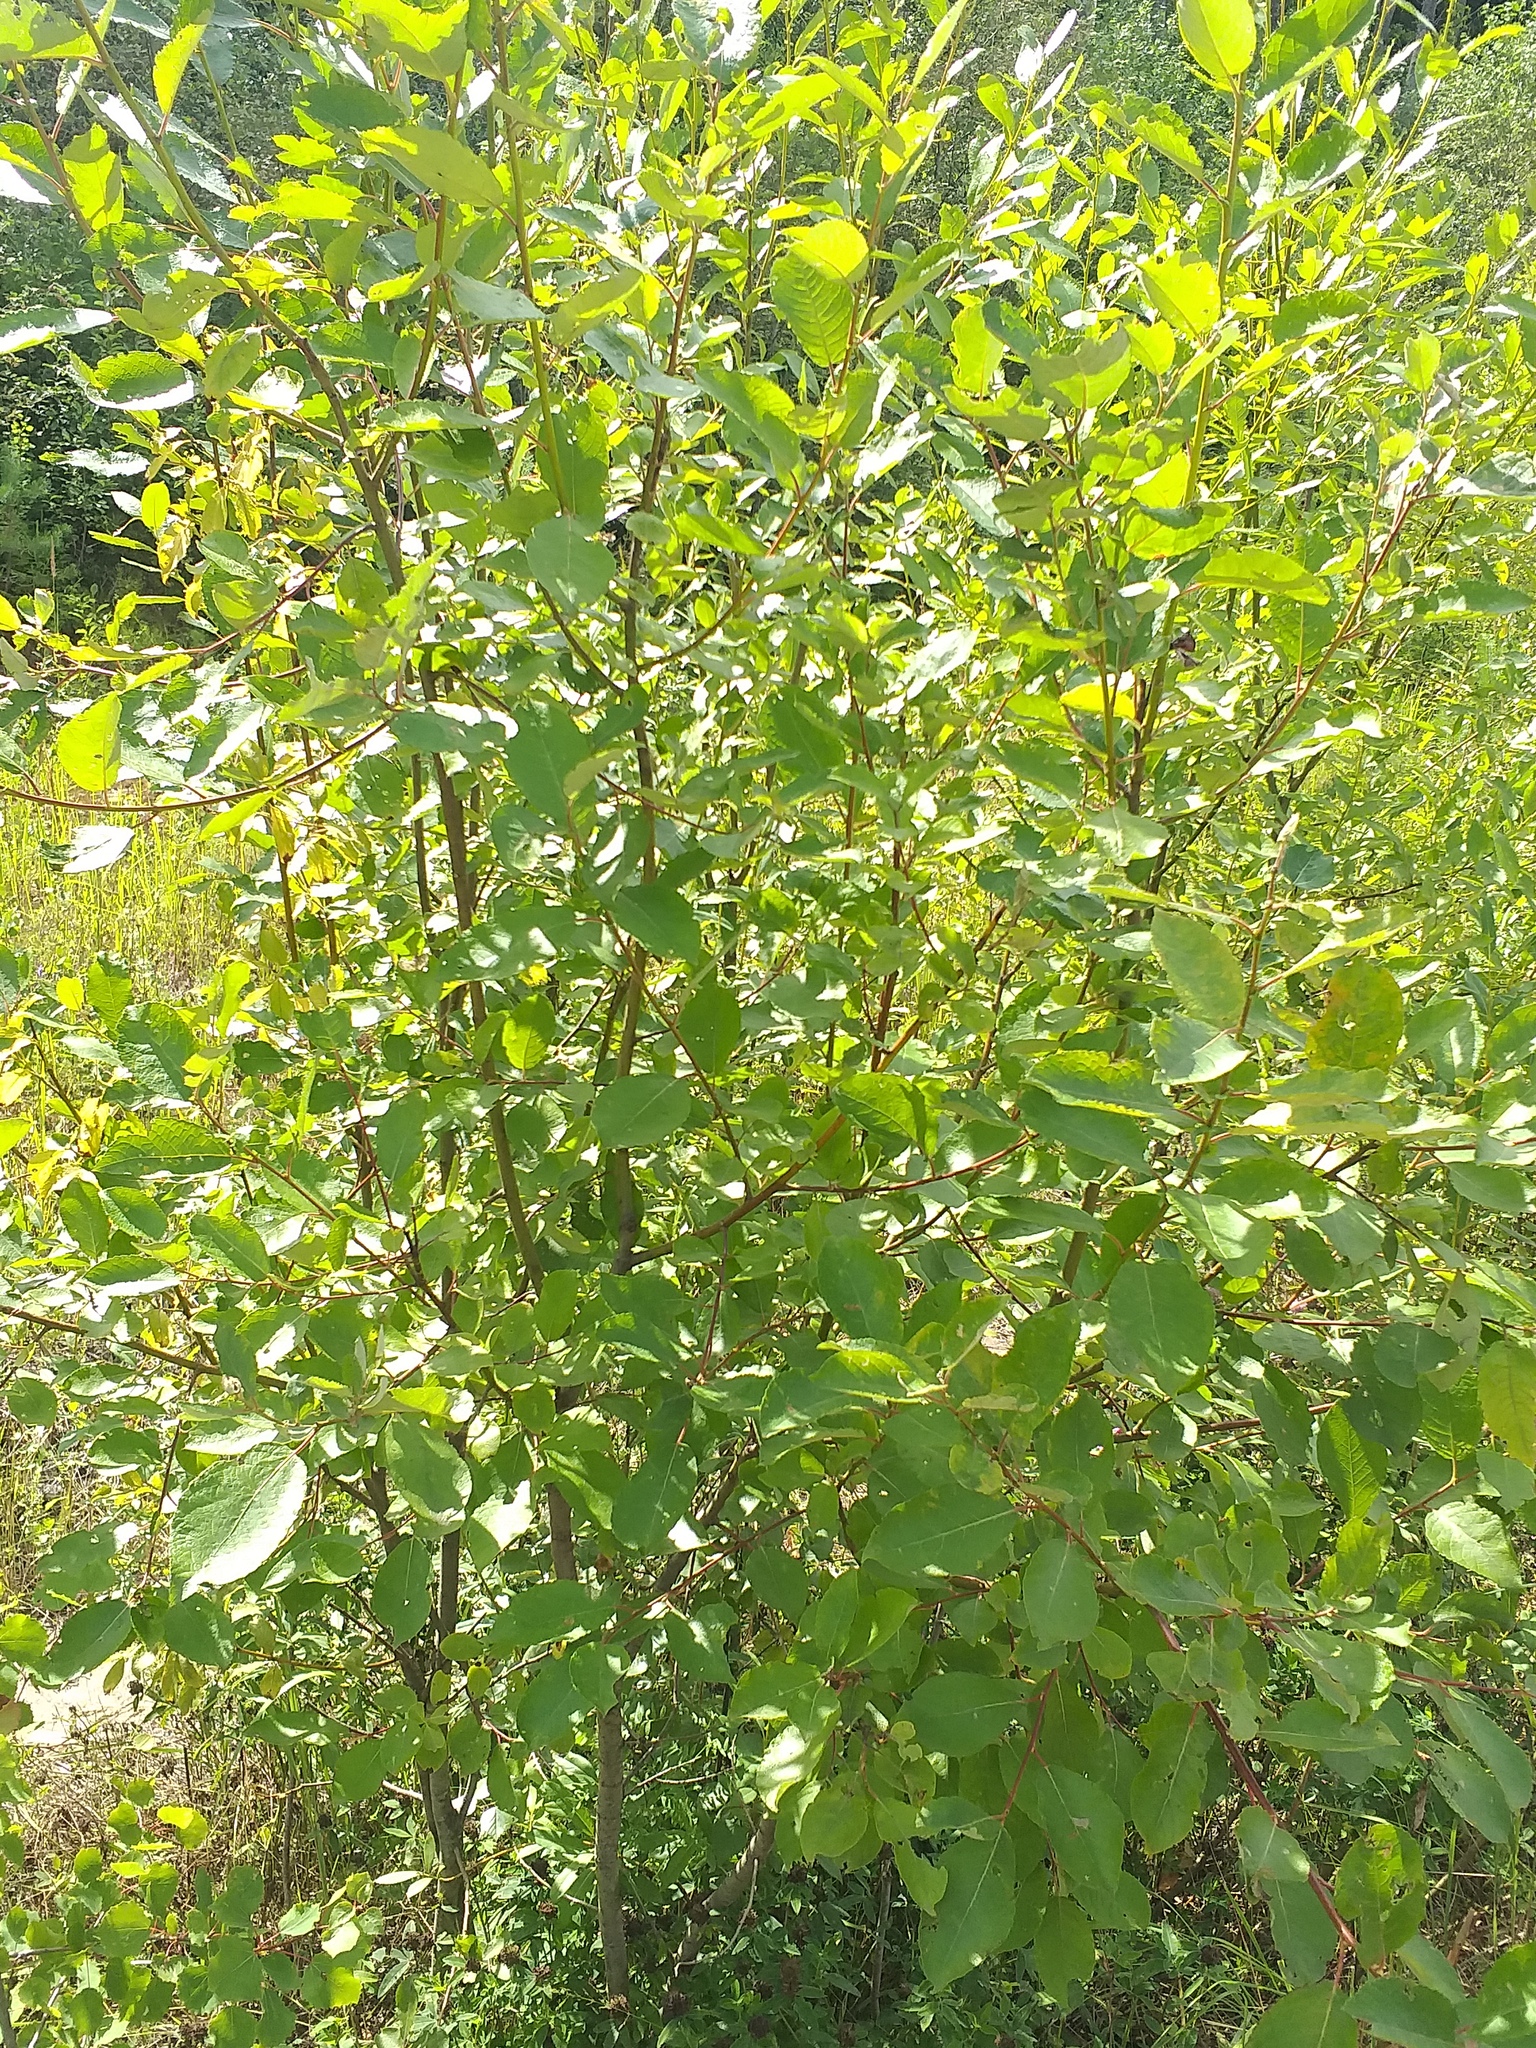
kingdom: Plantae
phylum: Tracheophyta
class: Magnoliopsida
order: Malpighiales
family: Salicaceae
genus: Salix
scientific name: Salix caprea
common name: Goat willow
